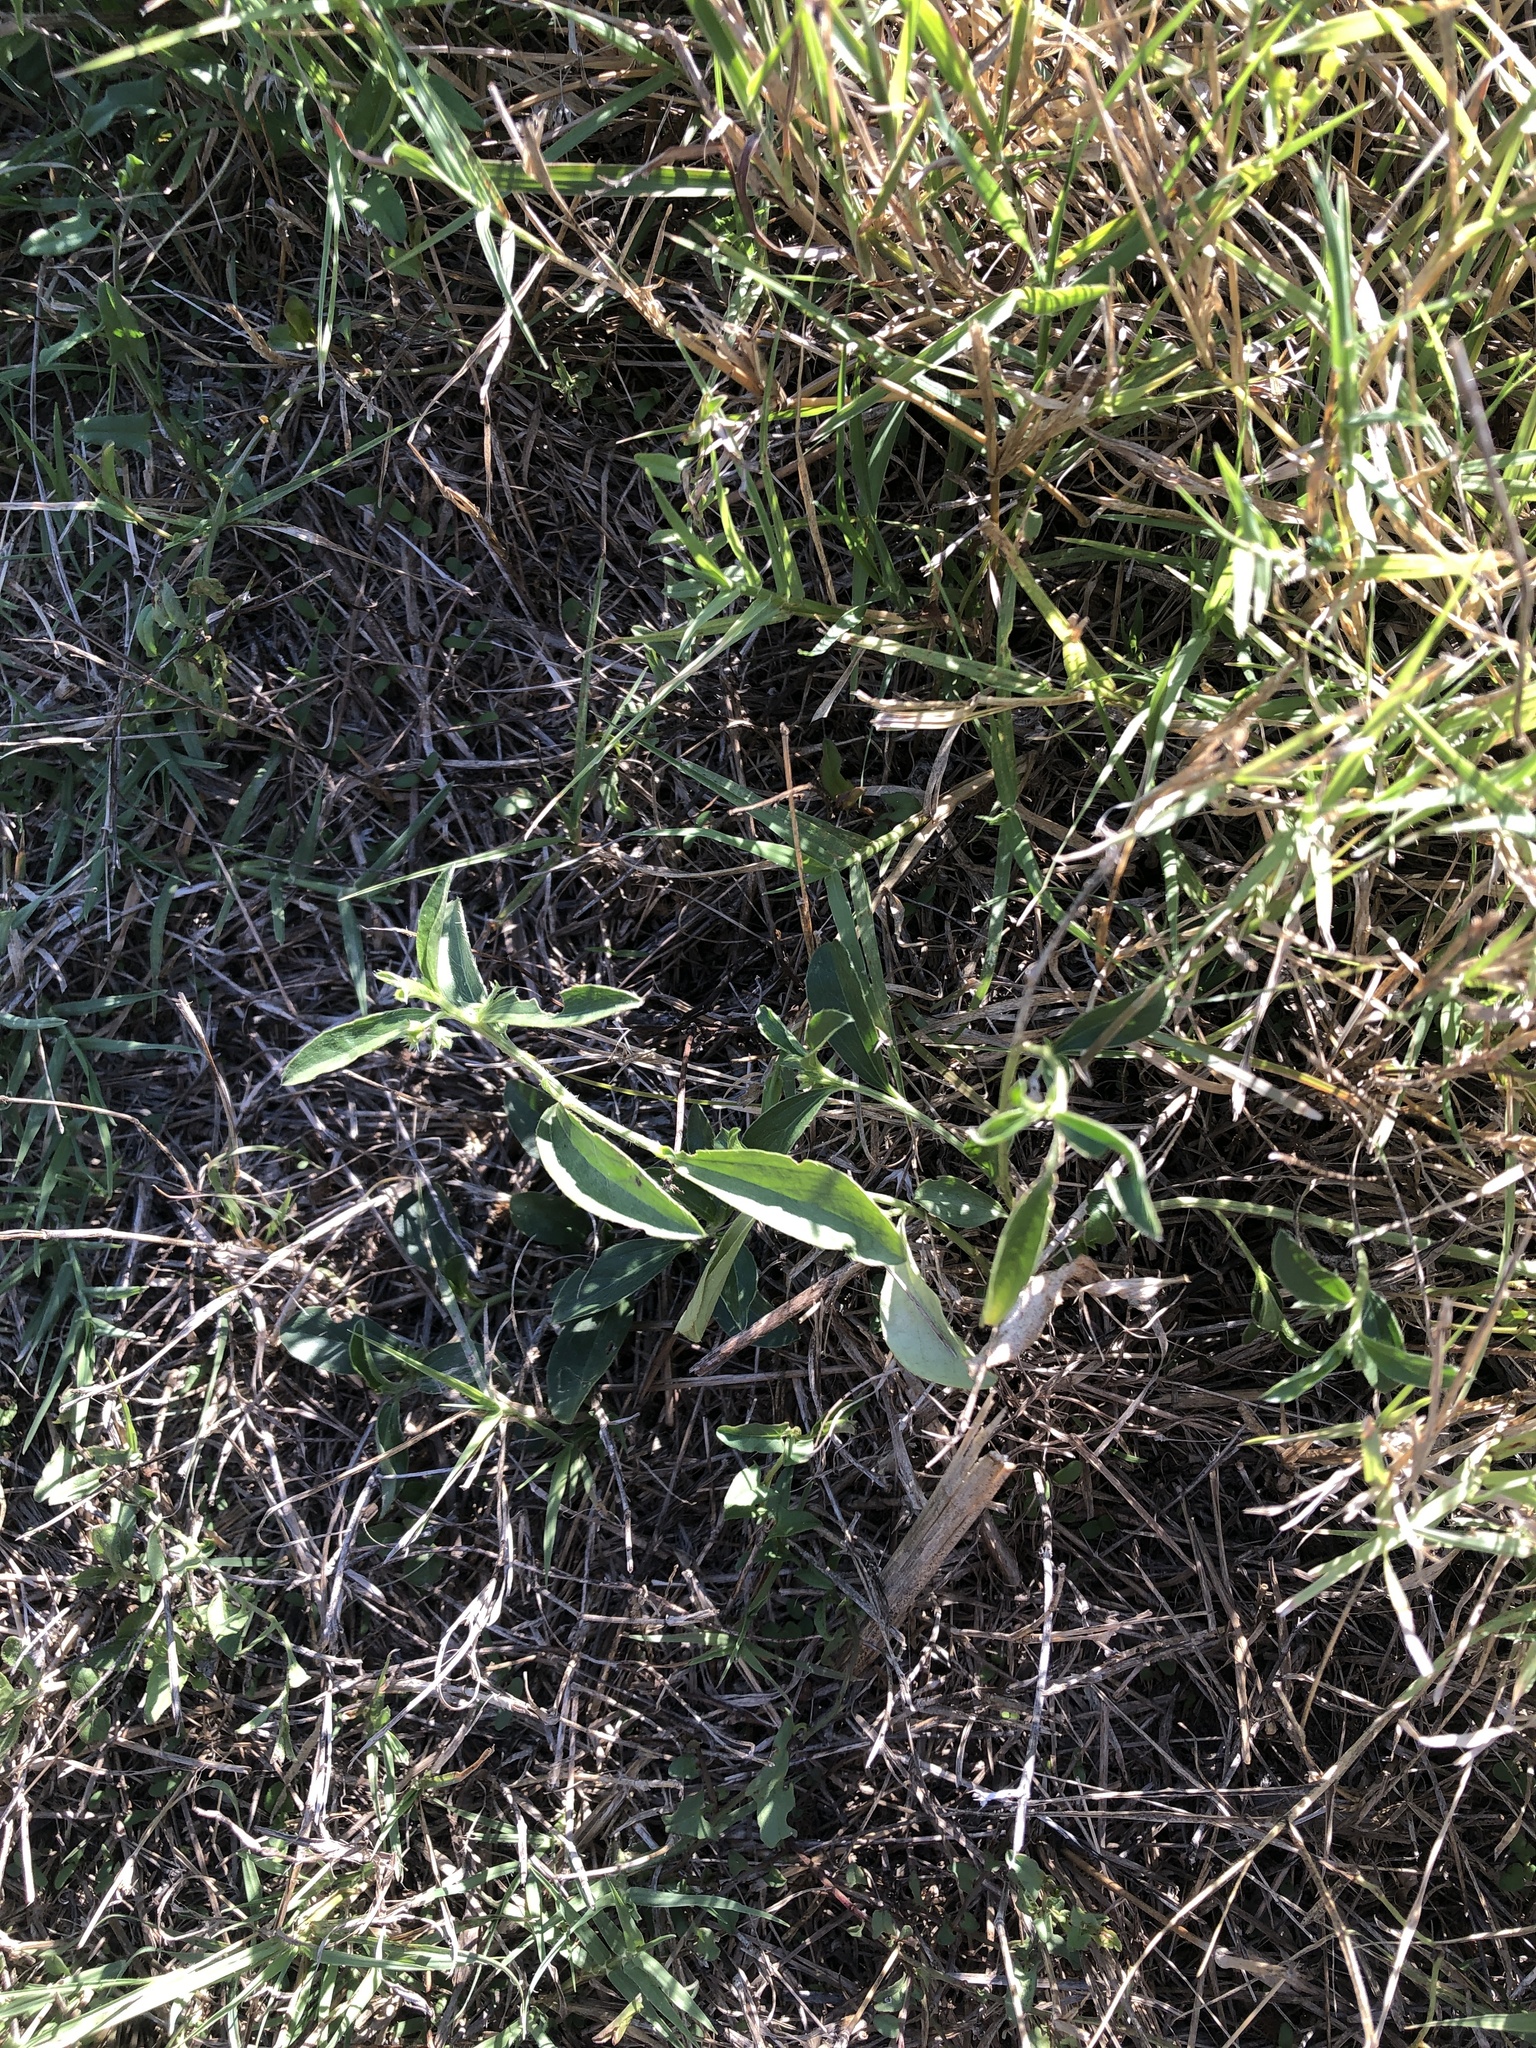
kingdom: Plantae
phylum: Tracheophyta
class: Magnoliopsida
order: Malpighiales
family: Euphorbiaceae
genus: Ditaxis
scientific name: Ditaxis humilis
